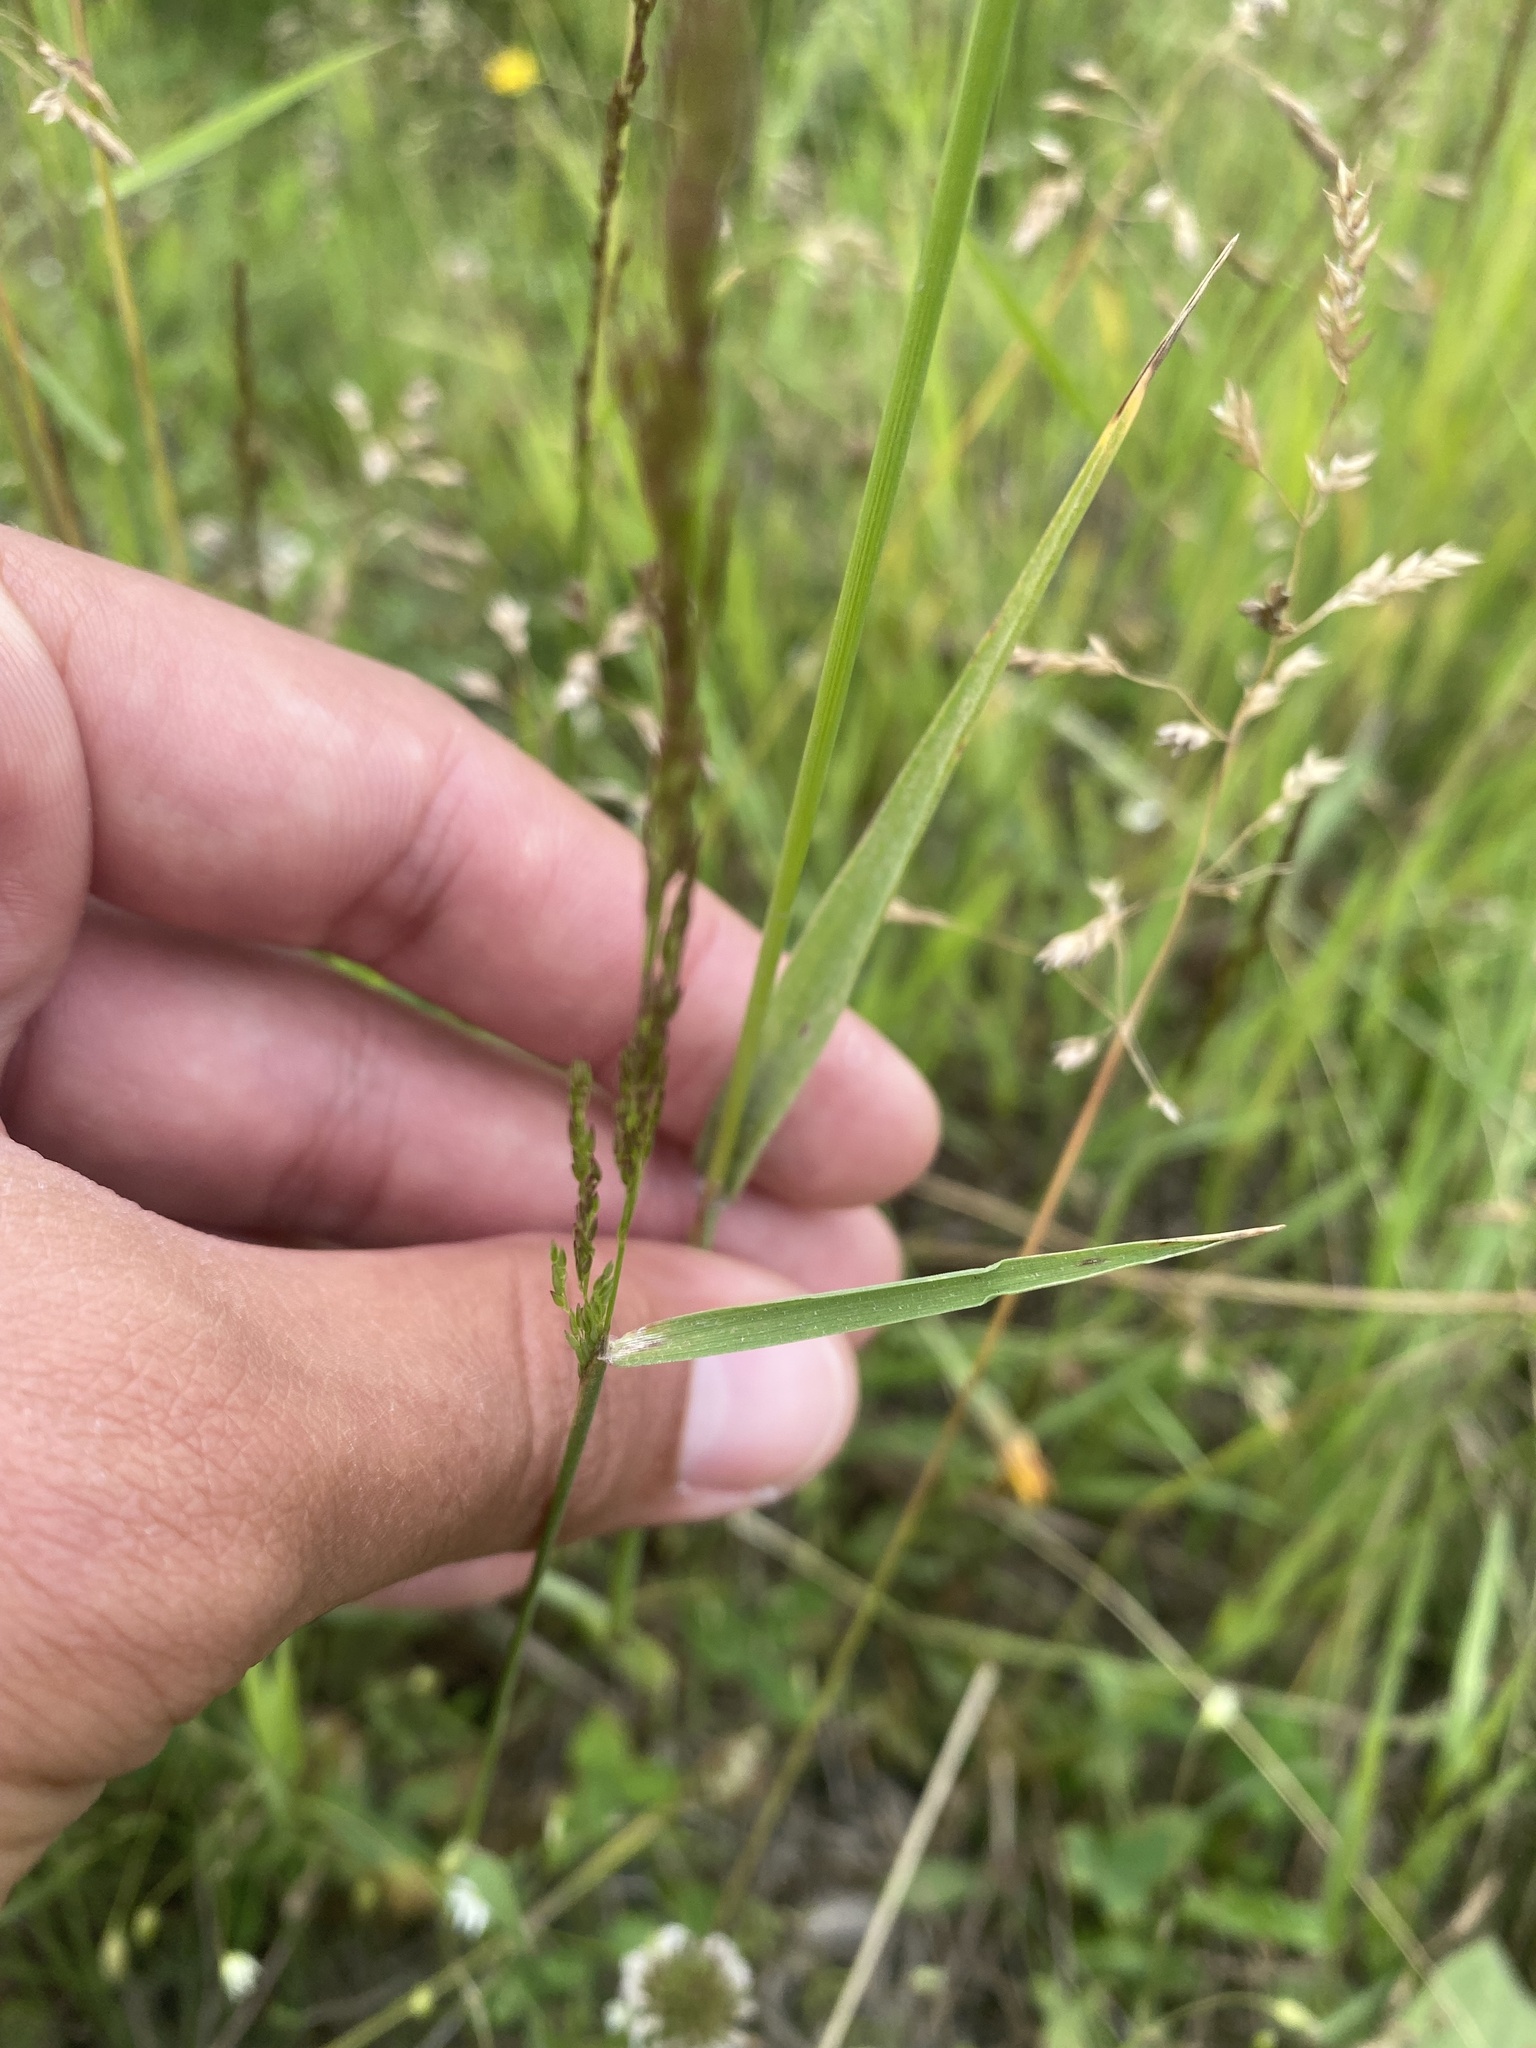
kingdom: Plantae
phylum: Tracheophyta
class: Liliopsida
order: Poales
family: Poaceae
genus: Phleum
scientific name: Phleum pratense
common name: Timothy grass
